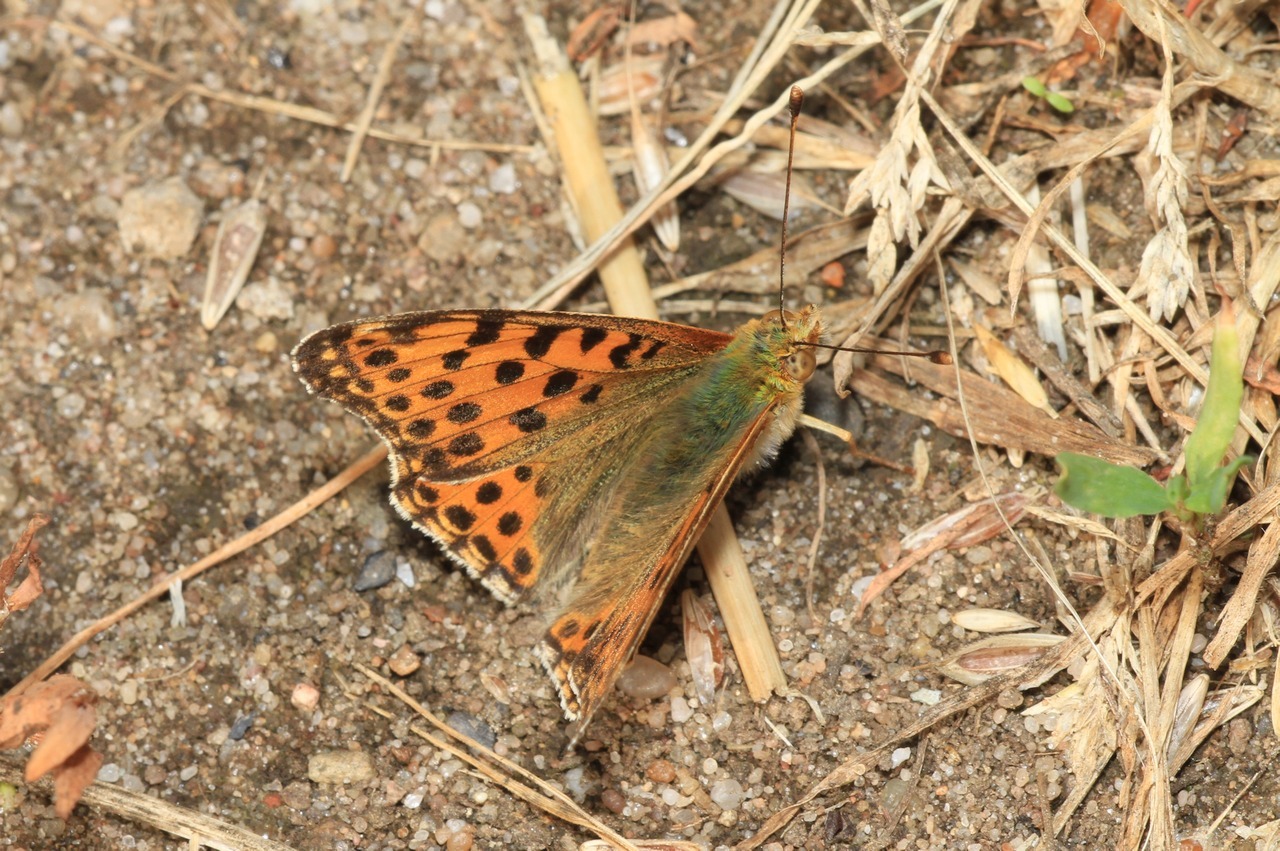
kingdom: Animalia
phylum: Arthropoda
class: Insecta
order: Lepidoptera
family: Nymphalidae
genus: Issoria
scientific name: Issoria lathonia
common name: Queen of spain fritillary
